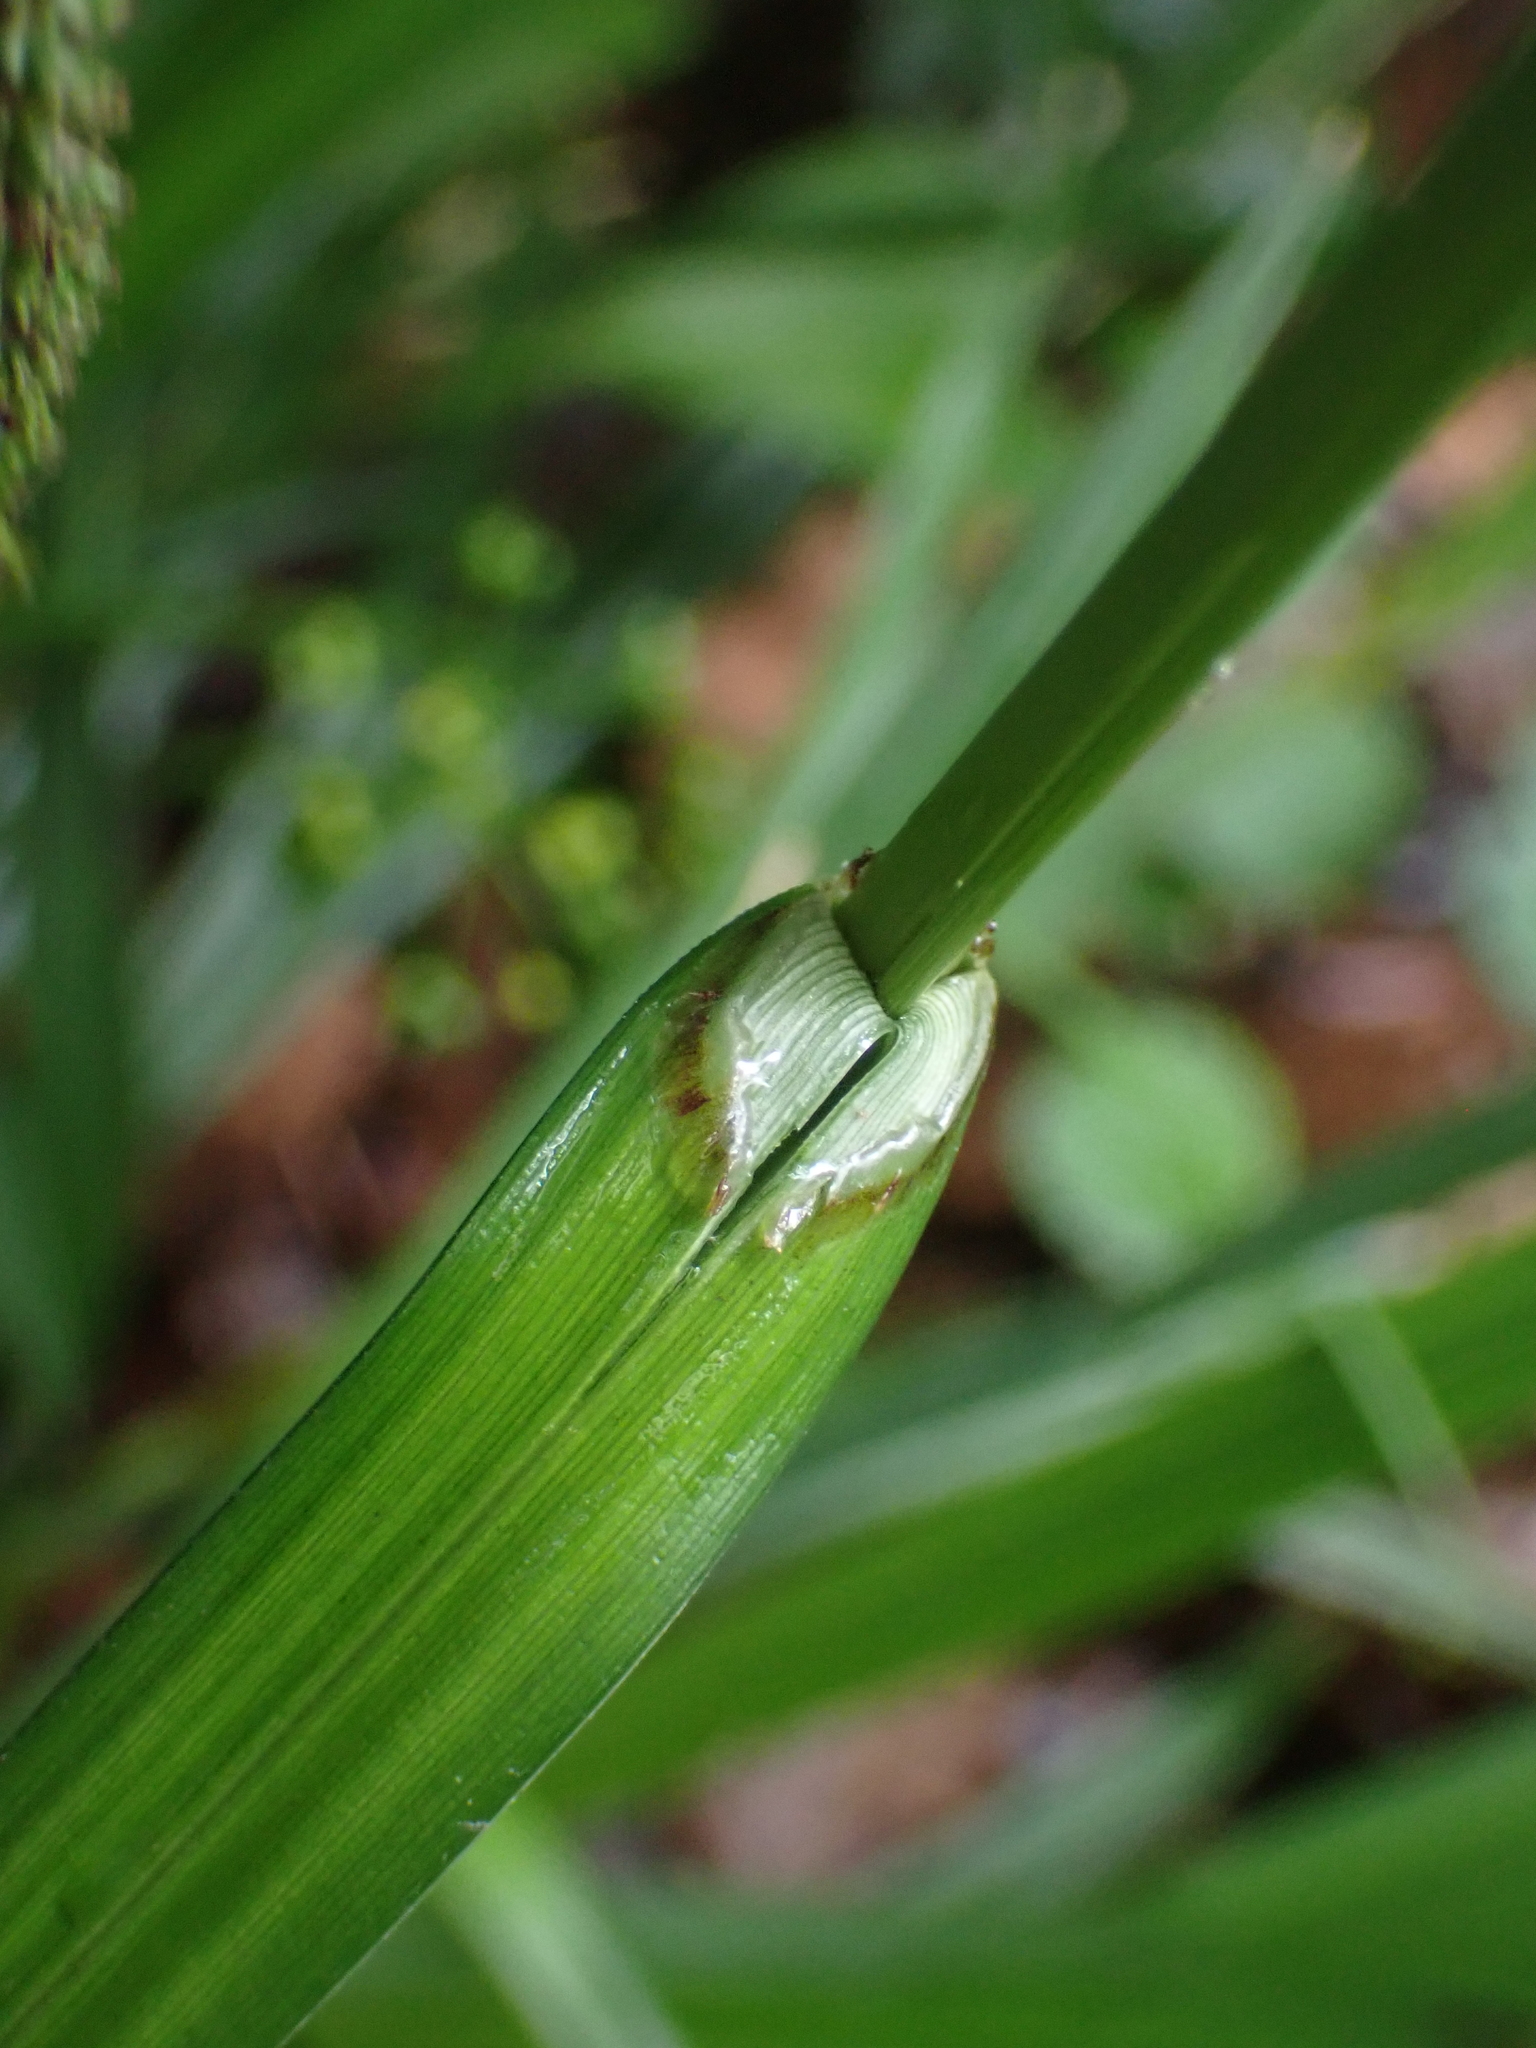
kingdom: Plantae
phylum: Tracheophyta
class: Liliopsida
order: Poales
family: Cyperaceae
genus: Carex
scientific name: Carex agastachys
